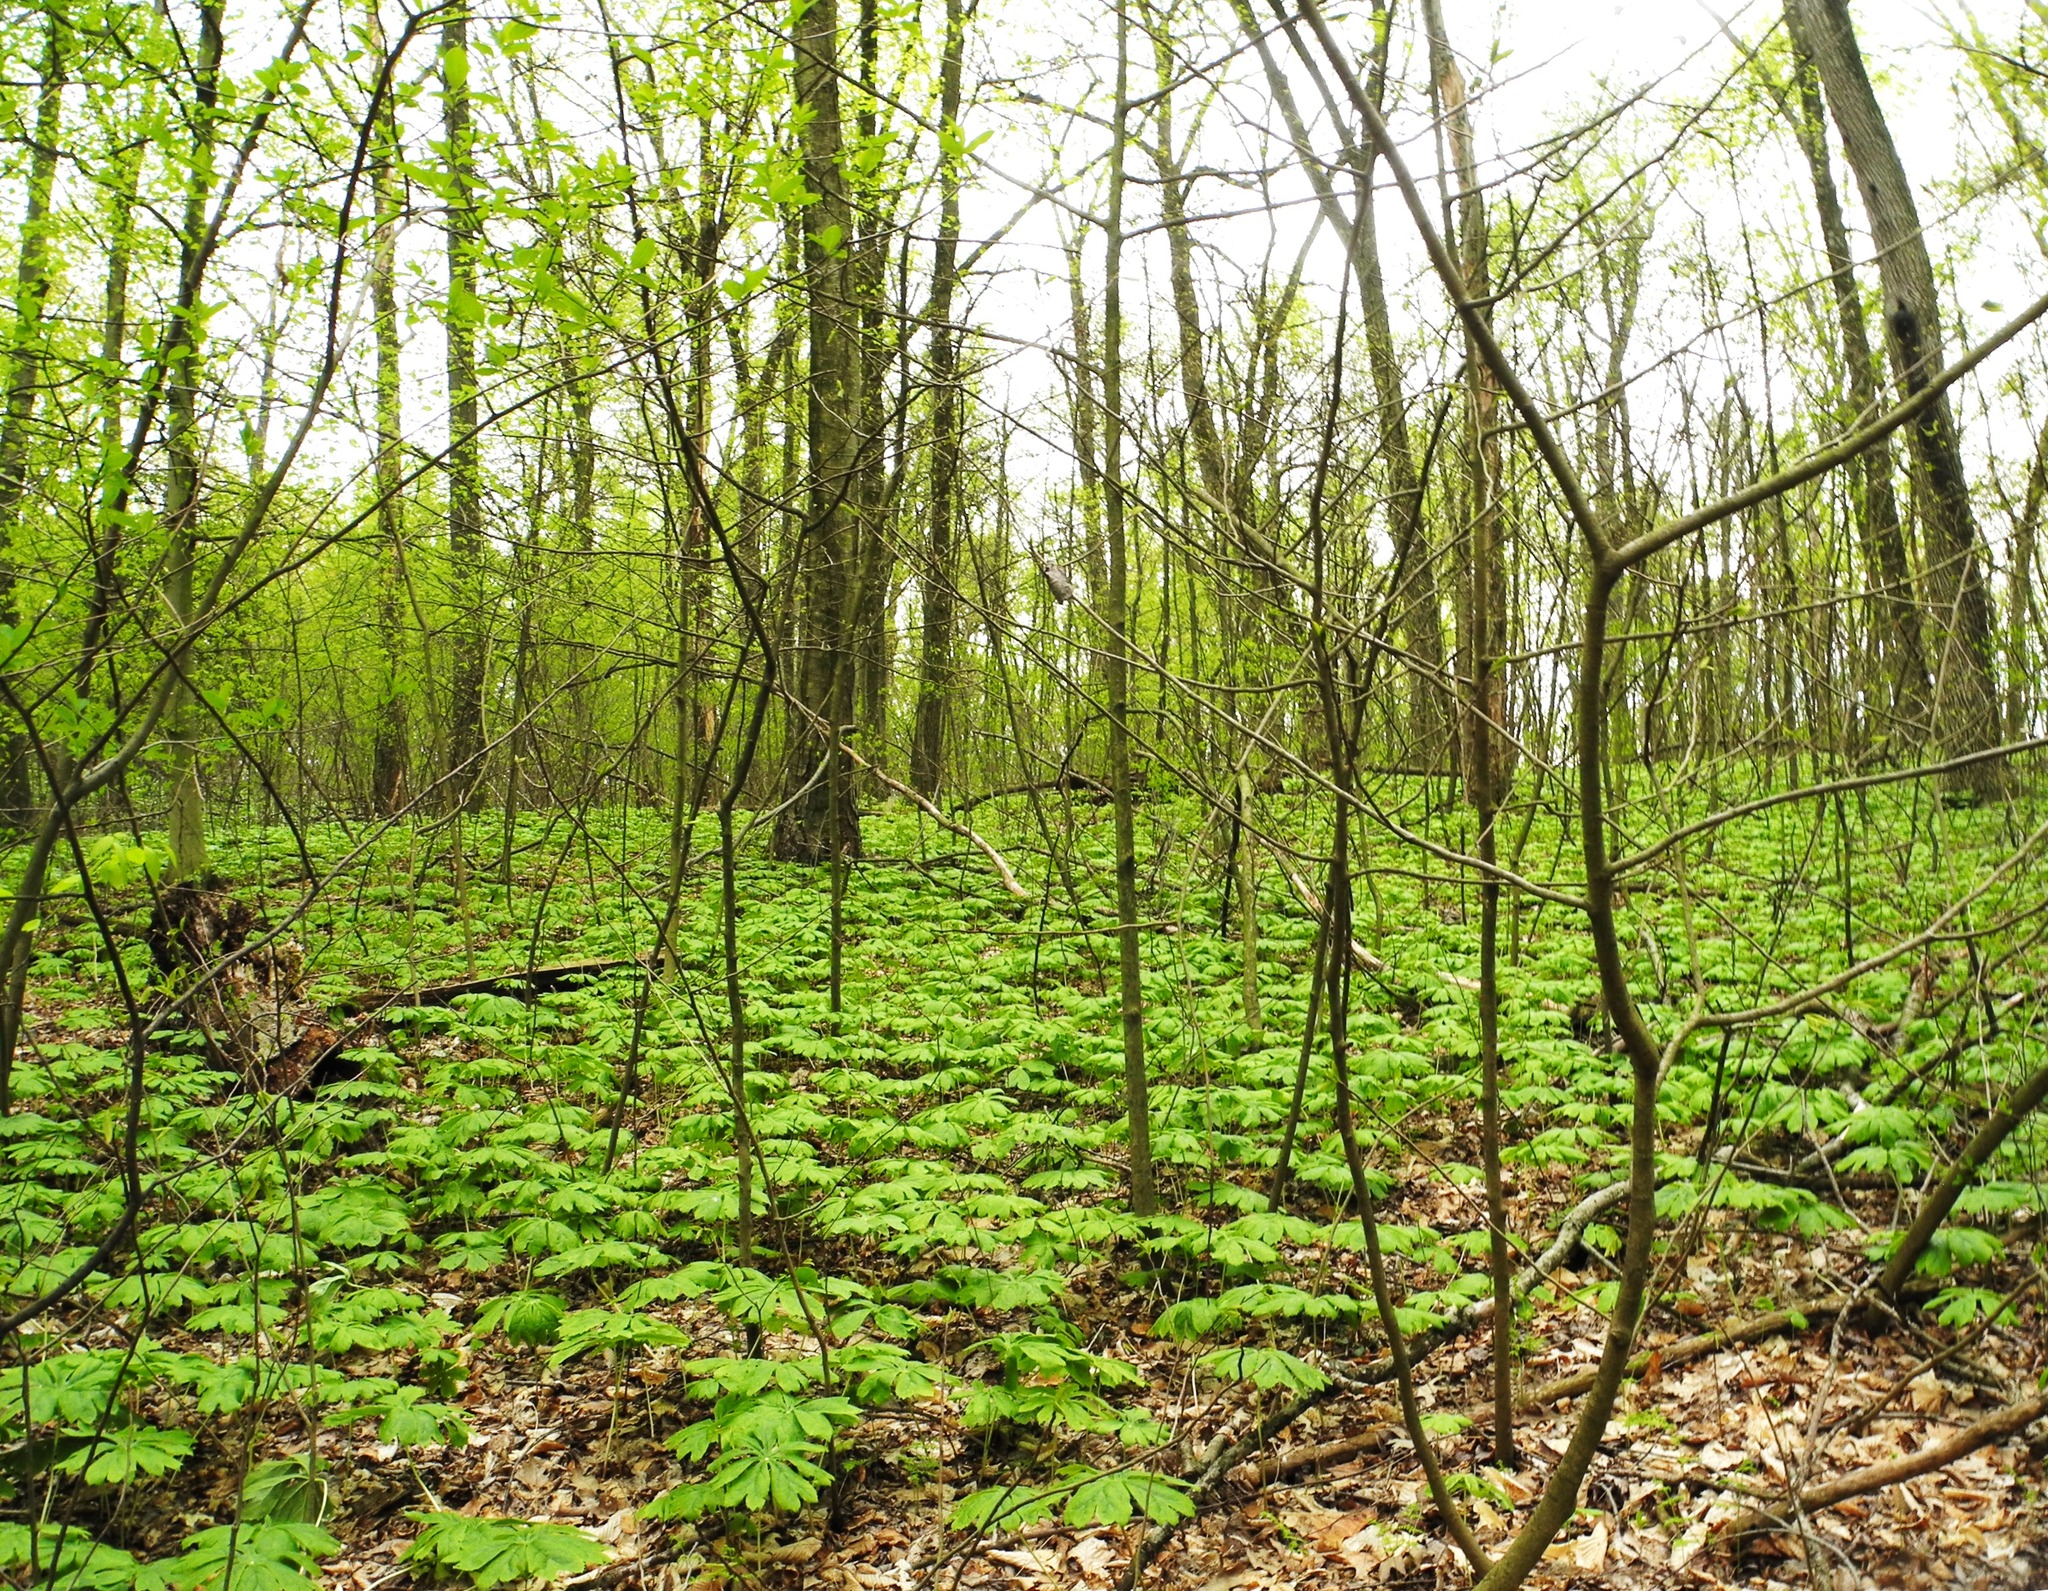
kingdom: Plantae
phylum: Tracheophyta
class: Magnoliopsida
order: Ranunculales
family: Berberidaceae
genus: Podophyllum
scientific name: Podophyllum peltatum
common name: Wild mandrake
